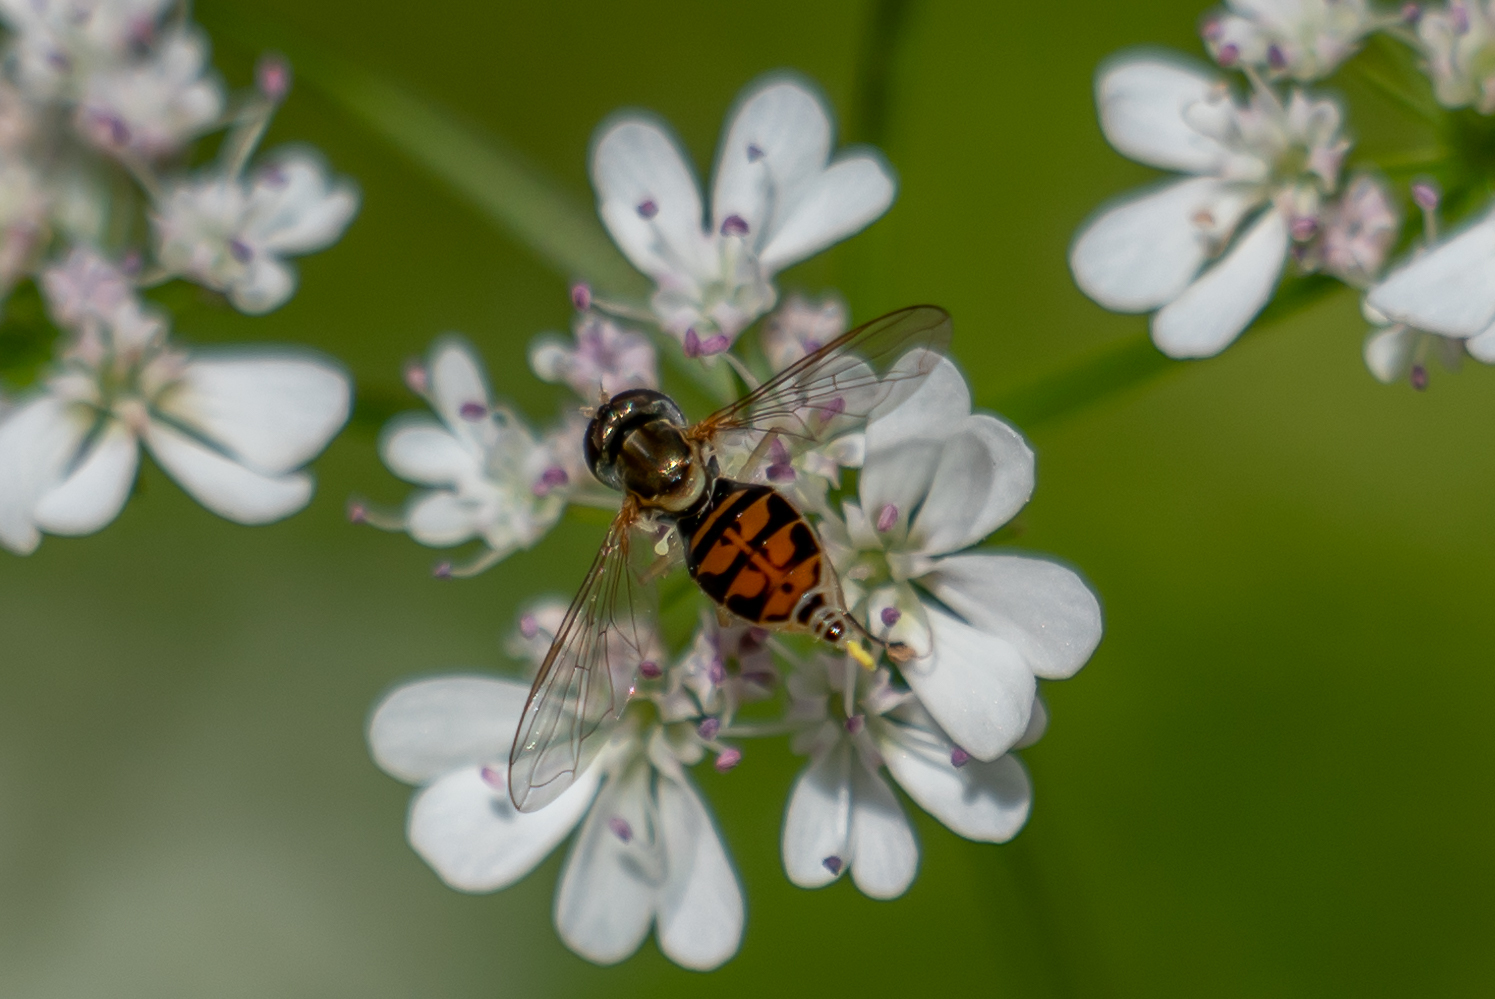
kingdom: Animalia
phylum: Arthropoda
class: Insecta
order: Diptera
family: Syrphidae
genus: Toxomerus
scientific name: Toxomerus marginatus
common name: Syrphid fly
